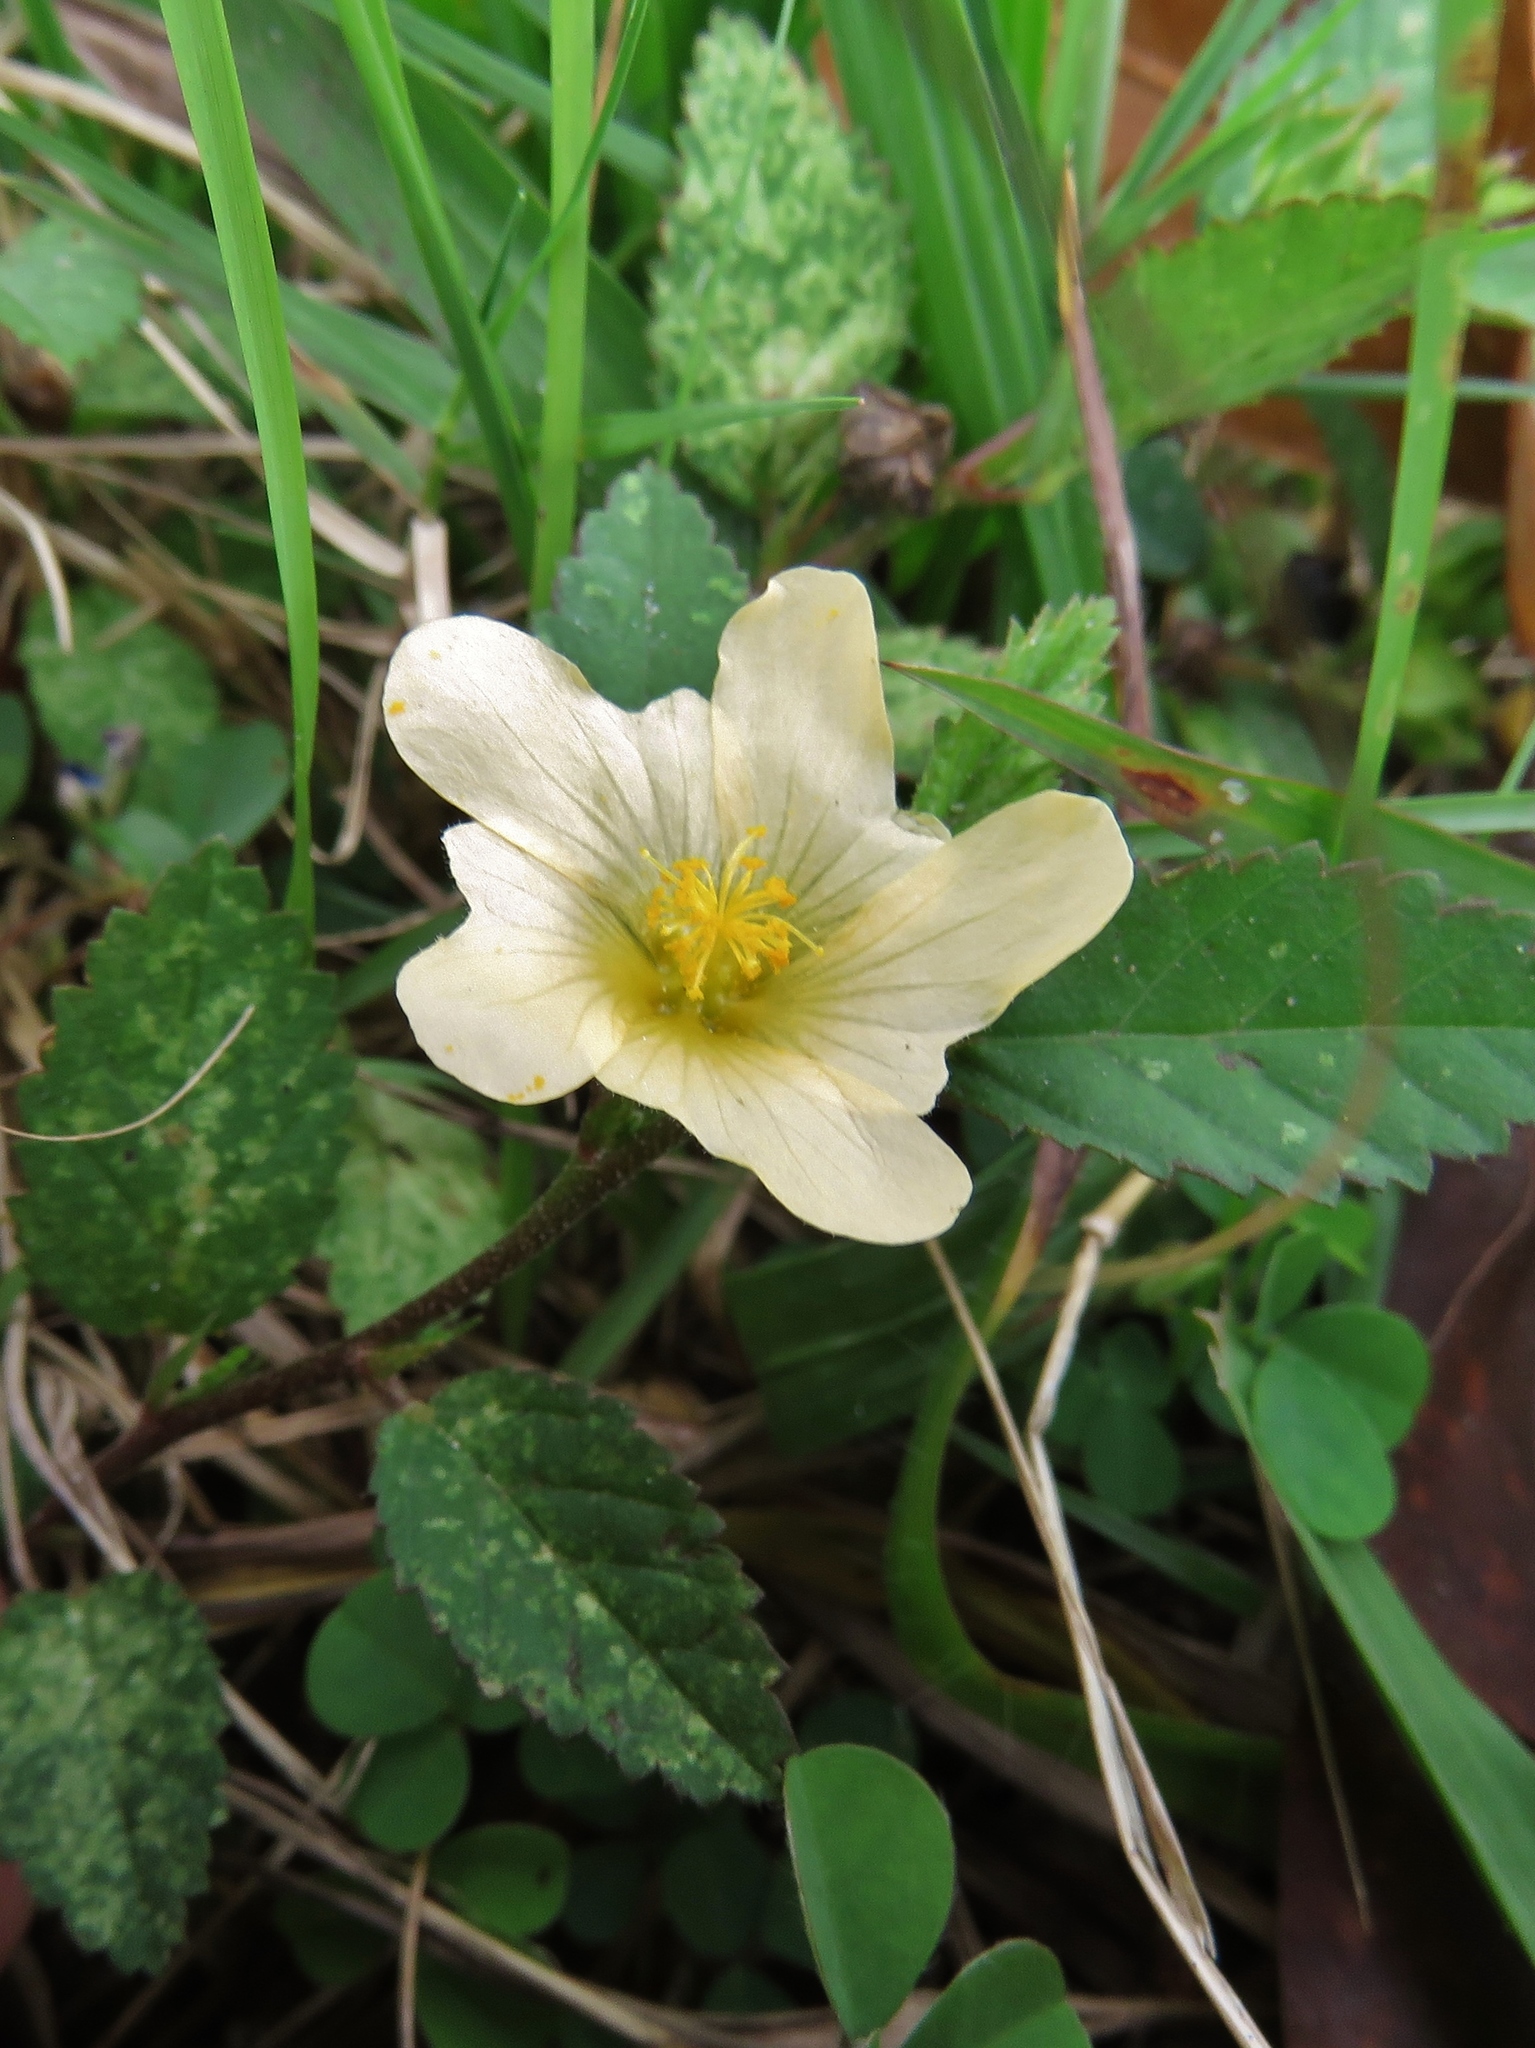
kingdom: Plantae
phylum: Tracheophyta
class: Magnoliopsida
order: Malvales
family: Malvaceae
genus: Sida
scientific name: Sida acuta
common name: Common wireweed
